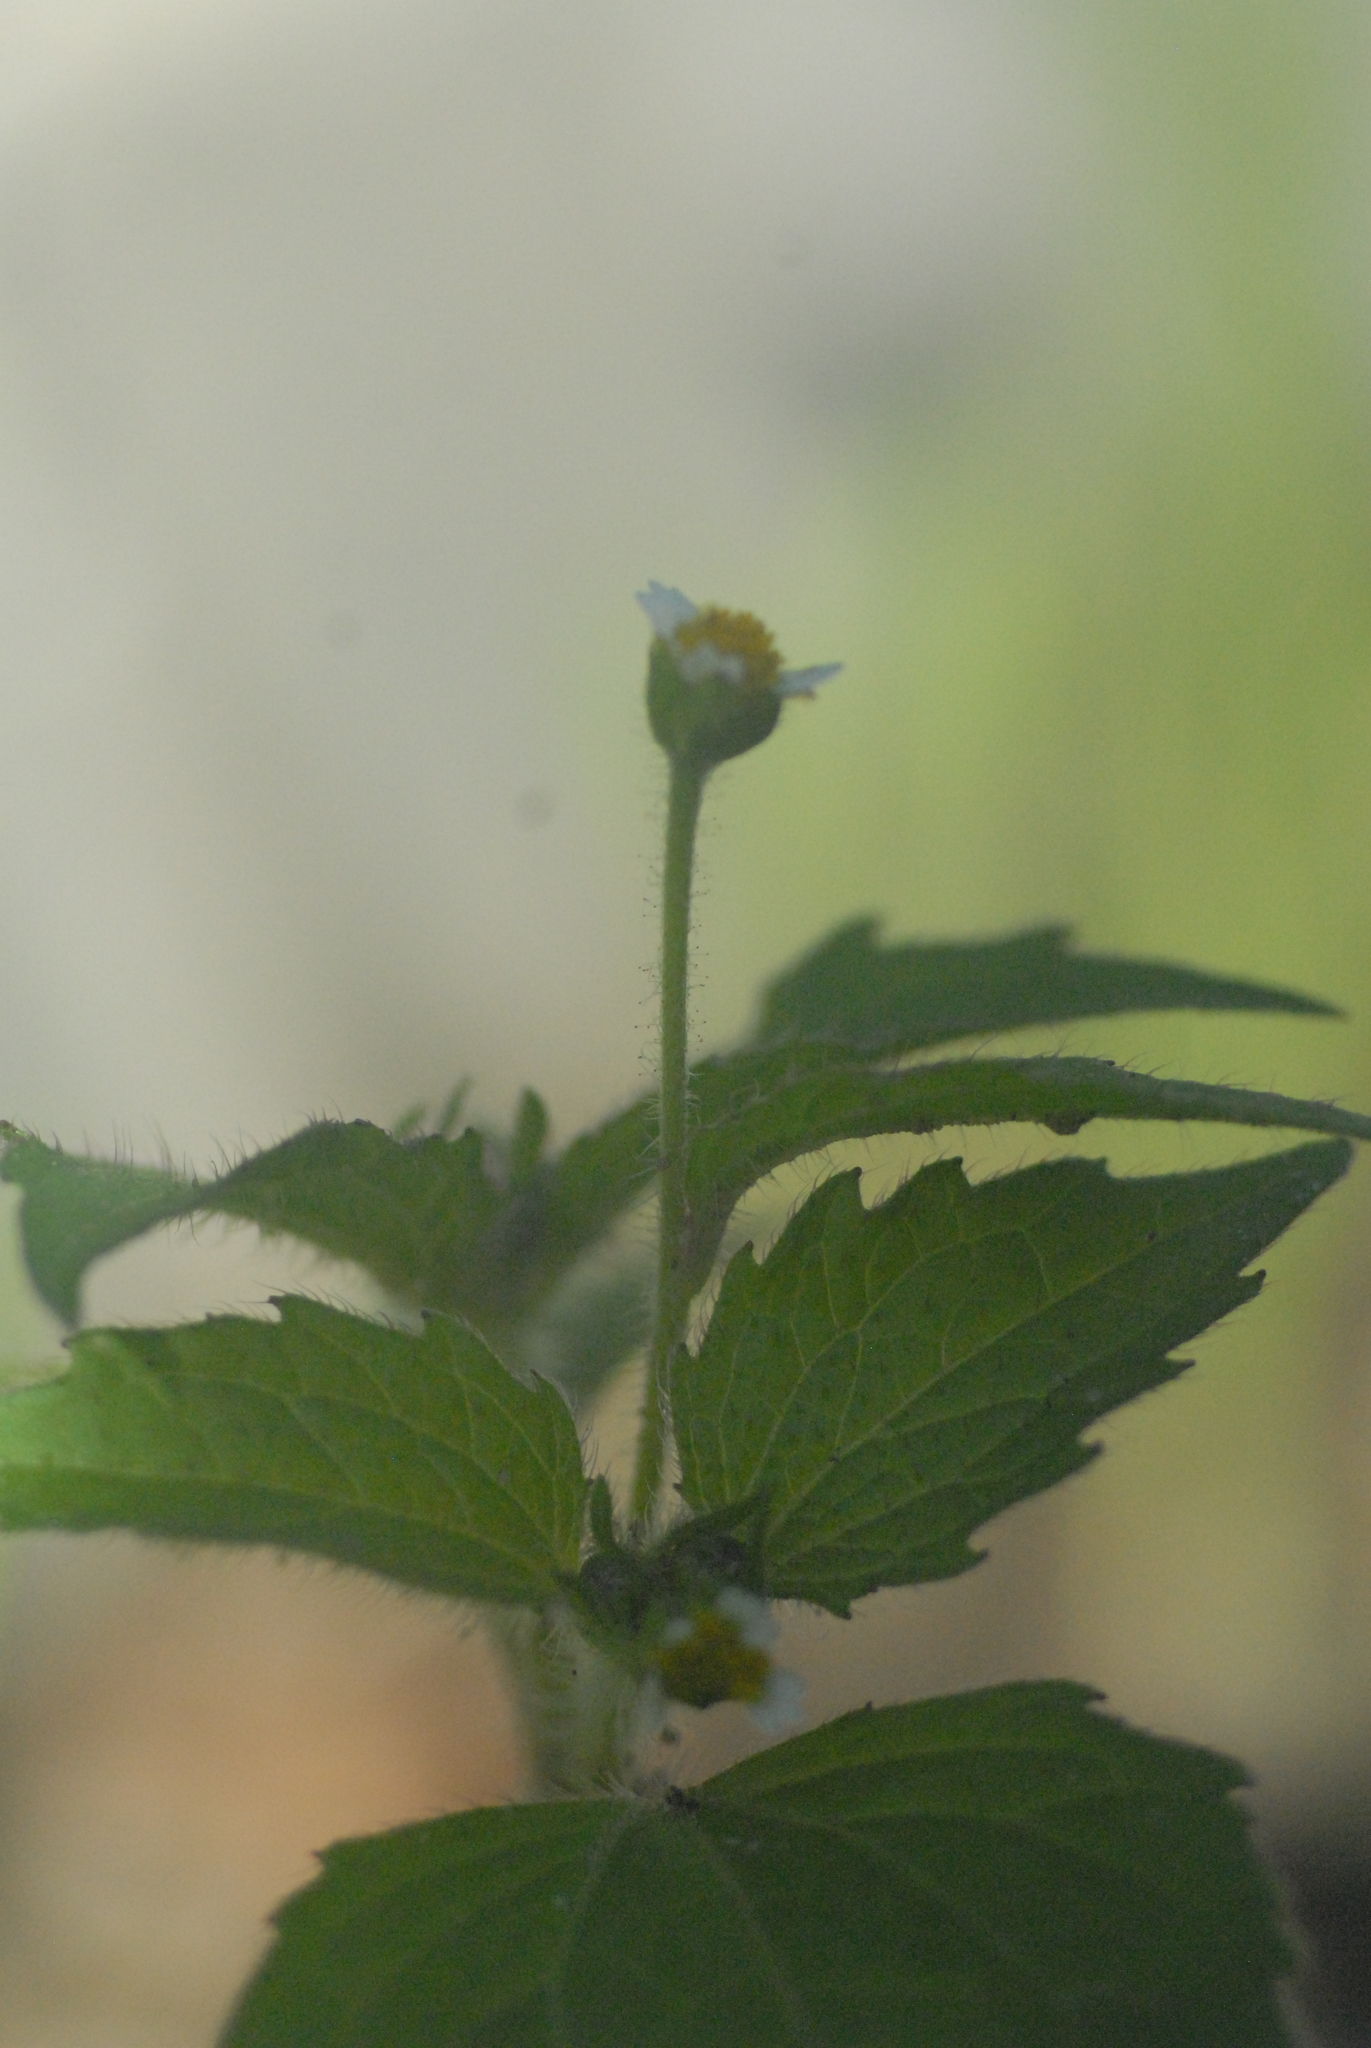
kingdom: Plantae
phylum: Tracheophyta
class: Magnoliopsida
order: Asterales
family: Asteraceae
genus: Galinsoga
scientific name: Galinsoga quadriradiata
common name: Shaggy soldier
